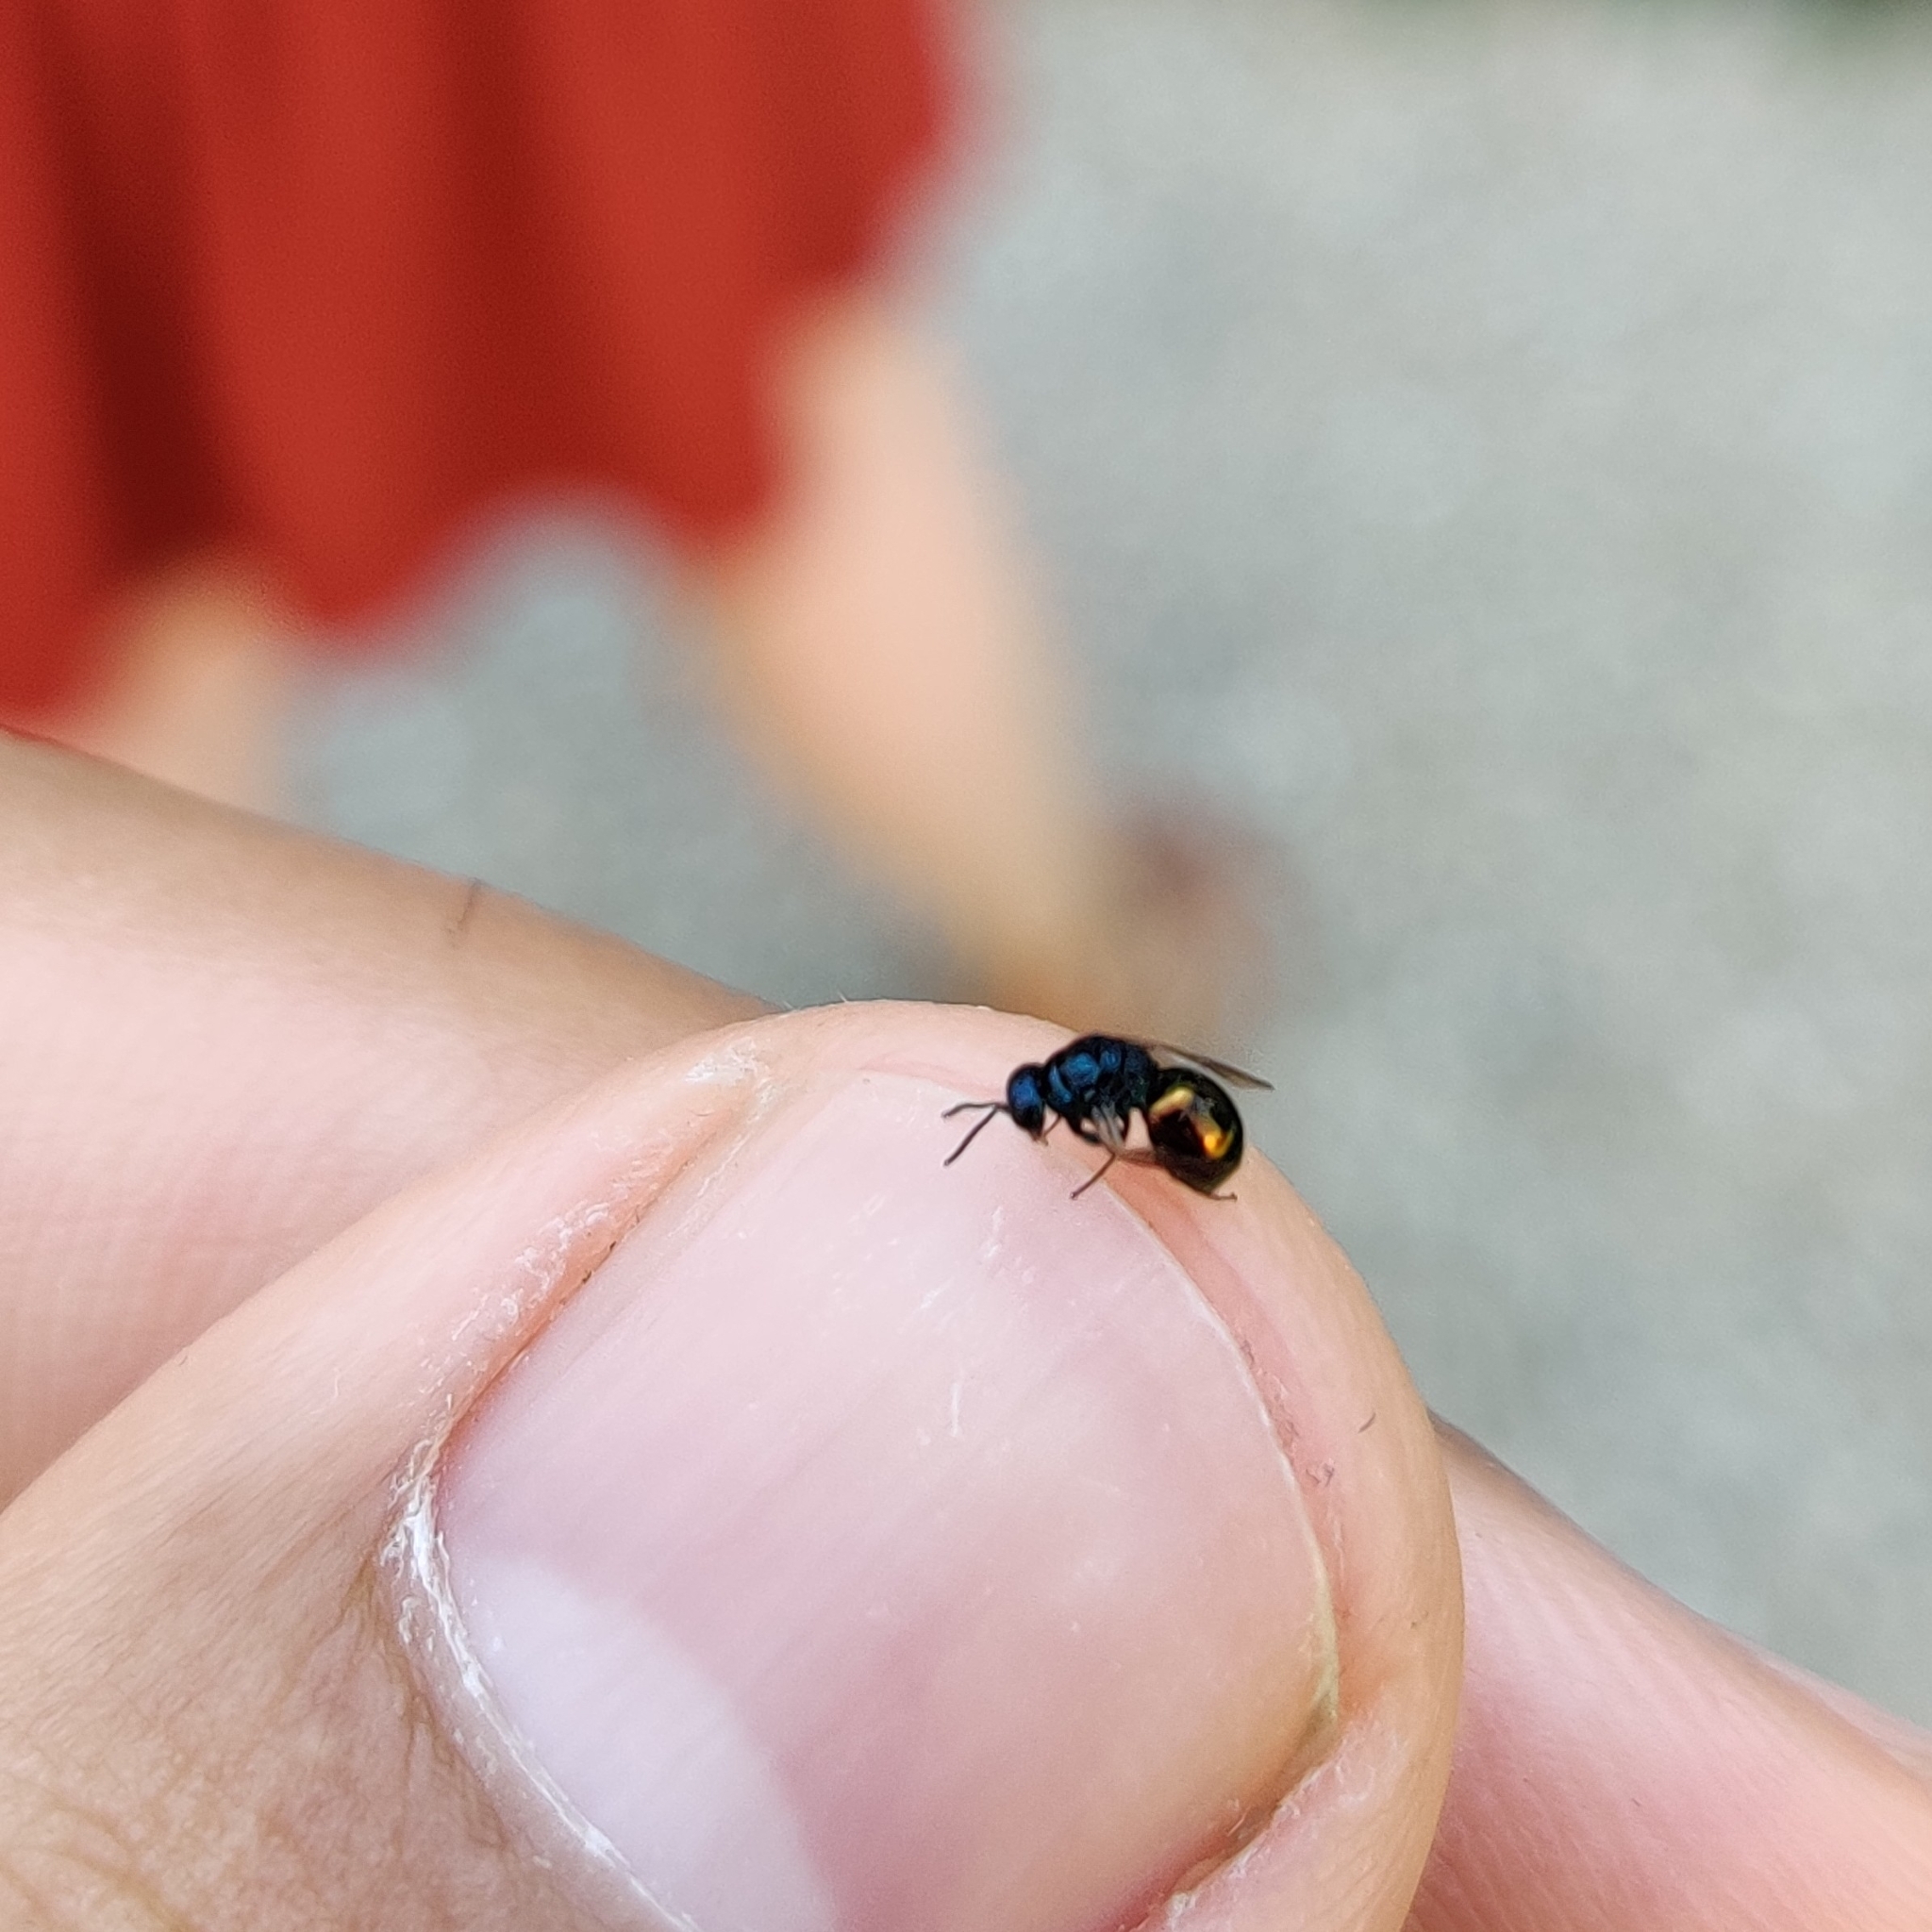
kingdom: Animalia
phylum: Arthropoda
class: Insecta
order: Hymenoptera
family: Chrysididae
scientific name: Chrysididae
